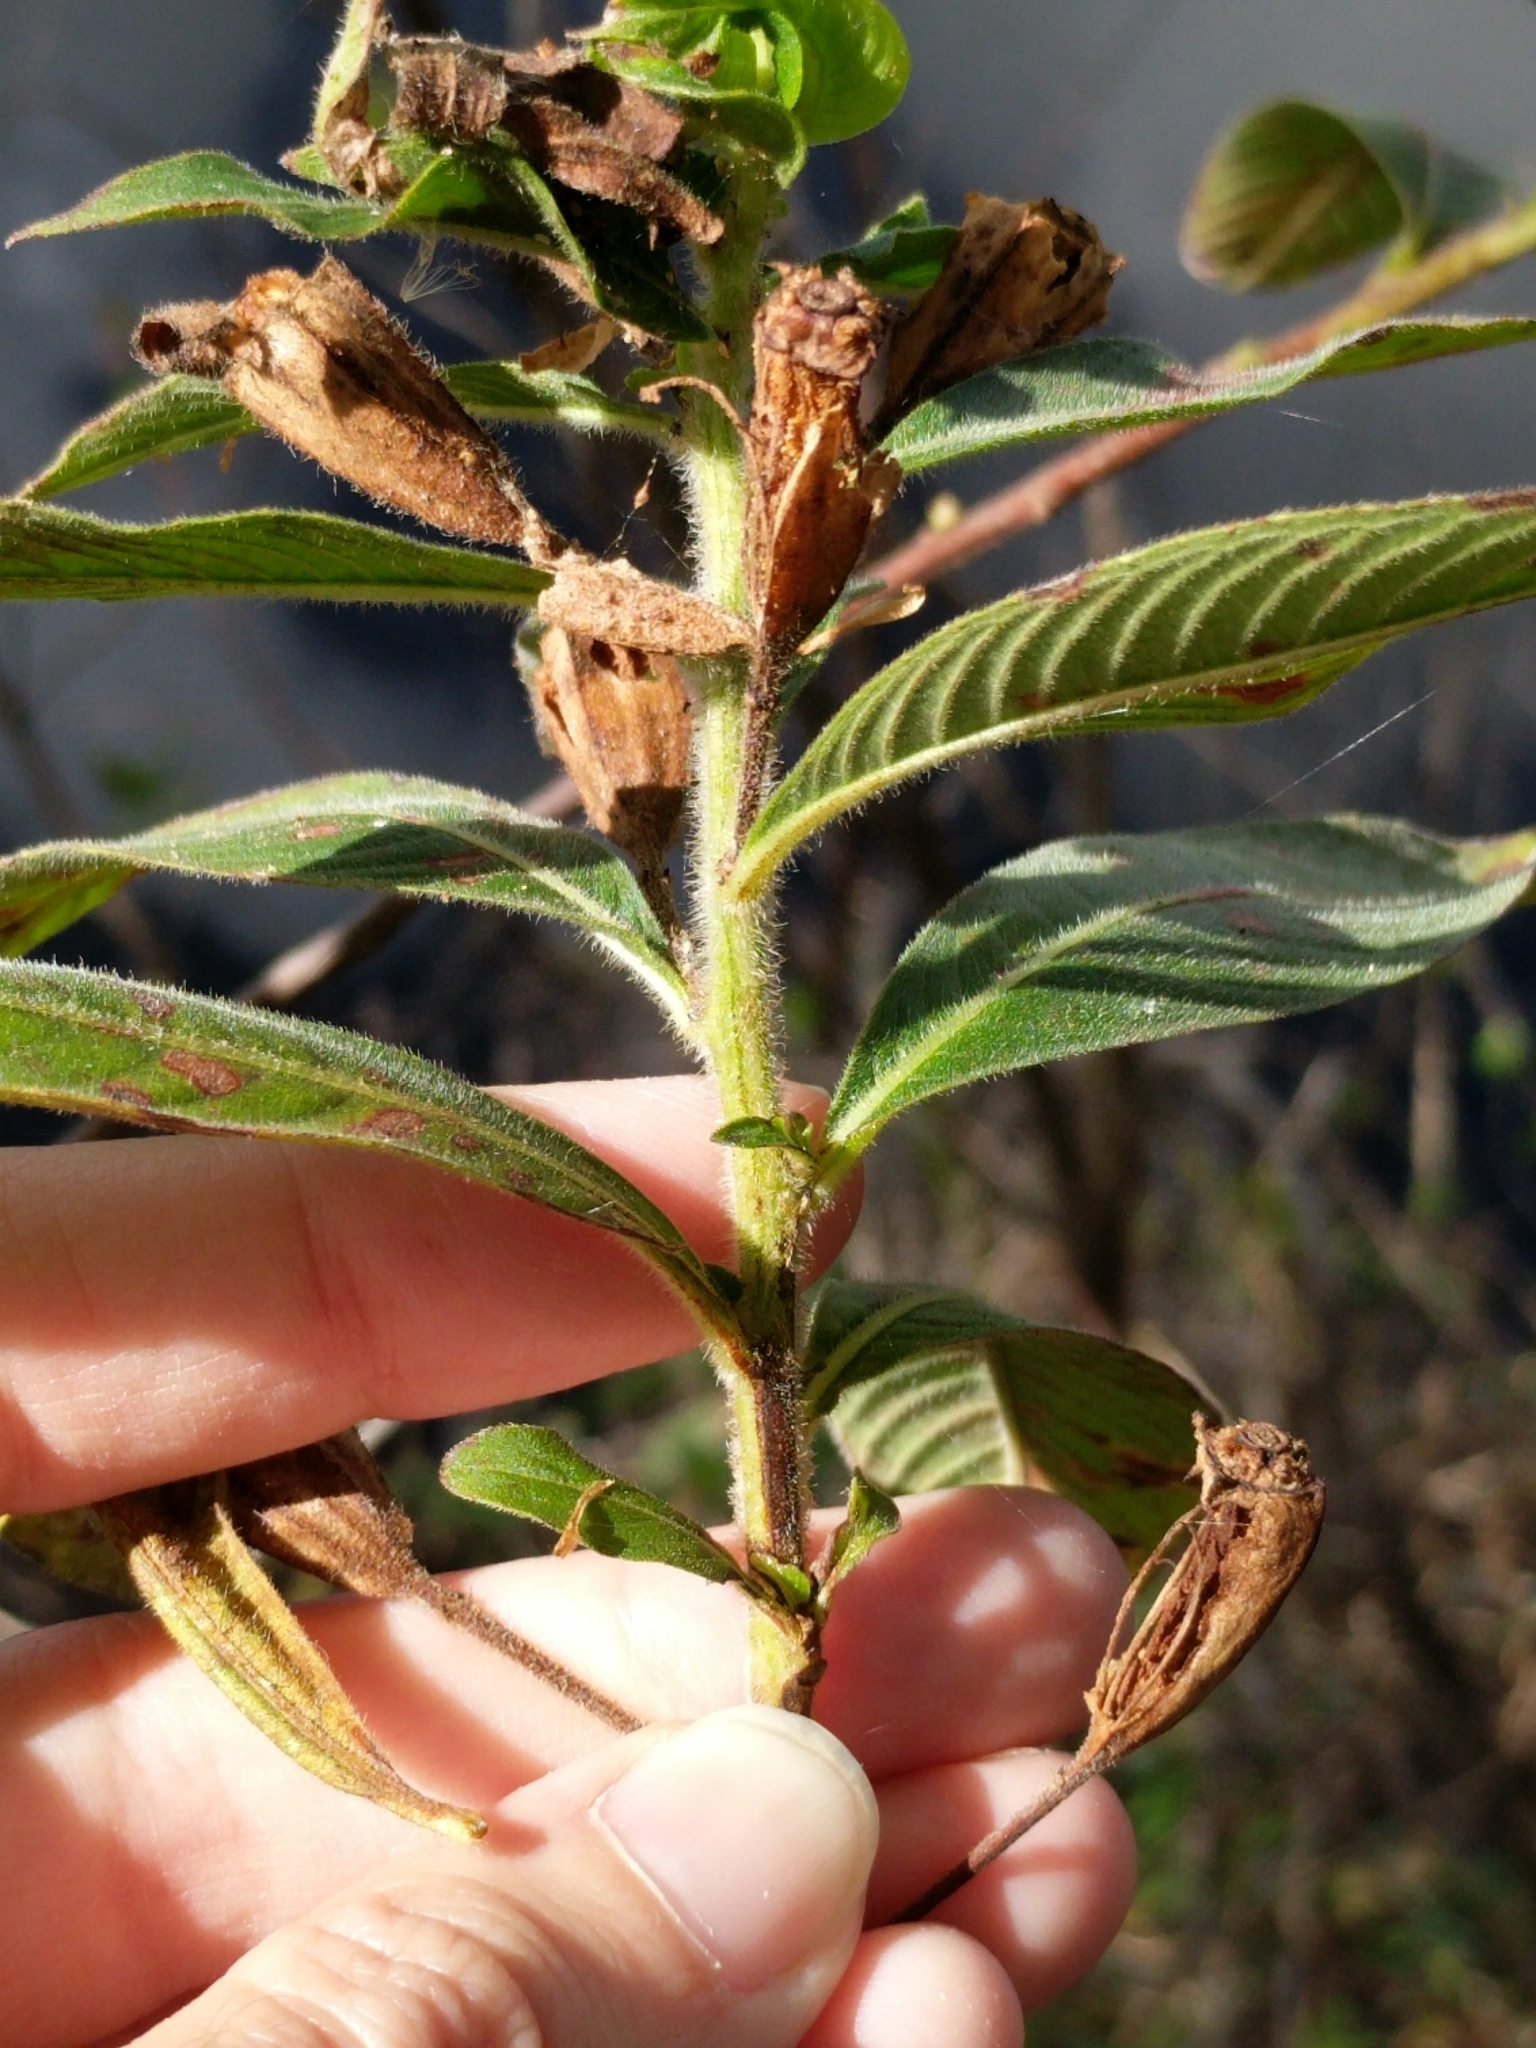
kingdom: Plantae
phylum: Tracheophyta
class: Magnoliopsida
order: Myrtales
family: Onagraceae
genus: Ludwigia
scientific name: Ludwigia peruviana
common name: Peruvian primrose-willow
